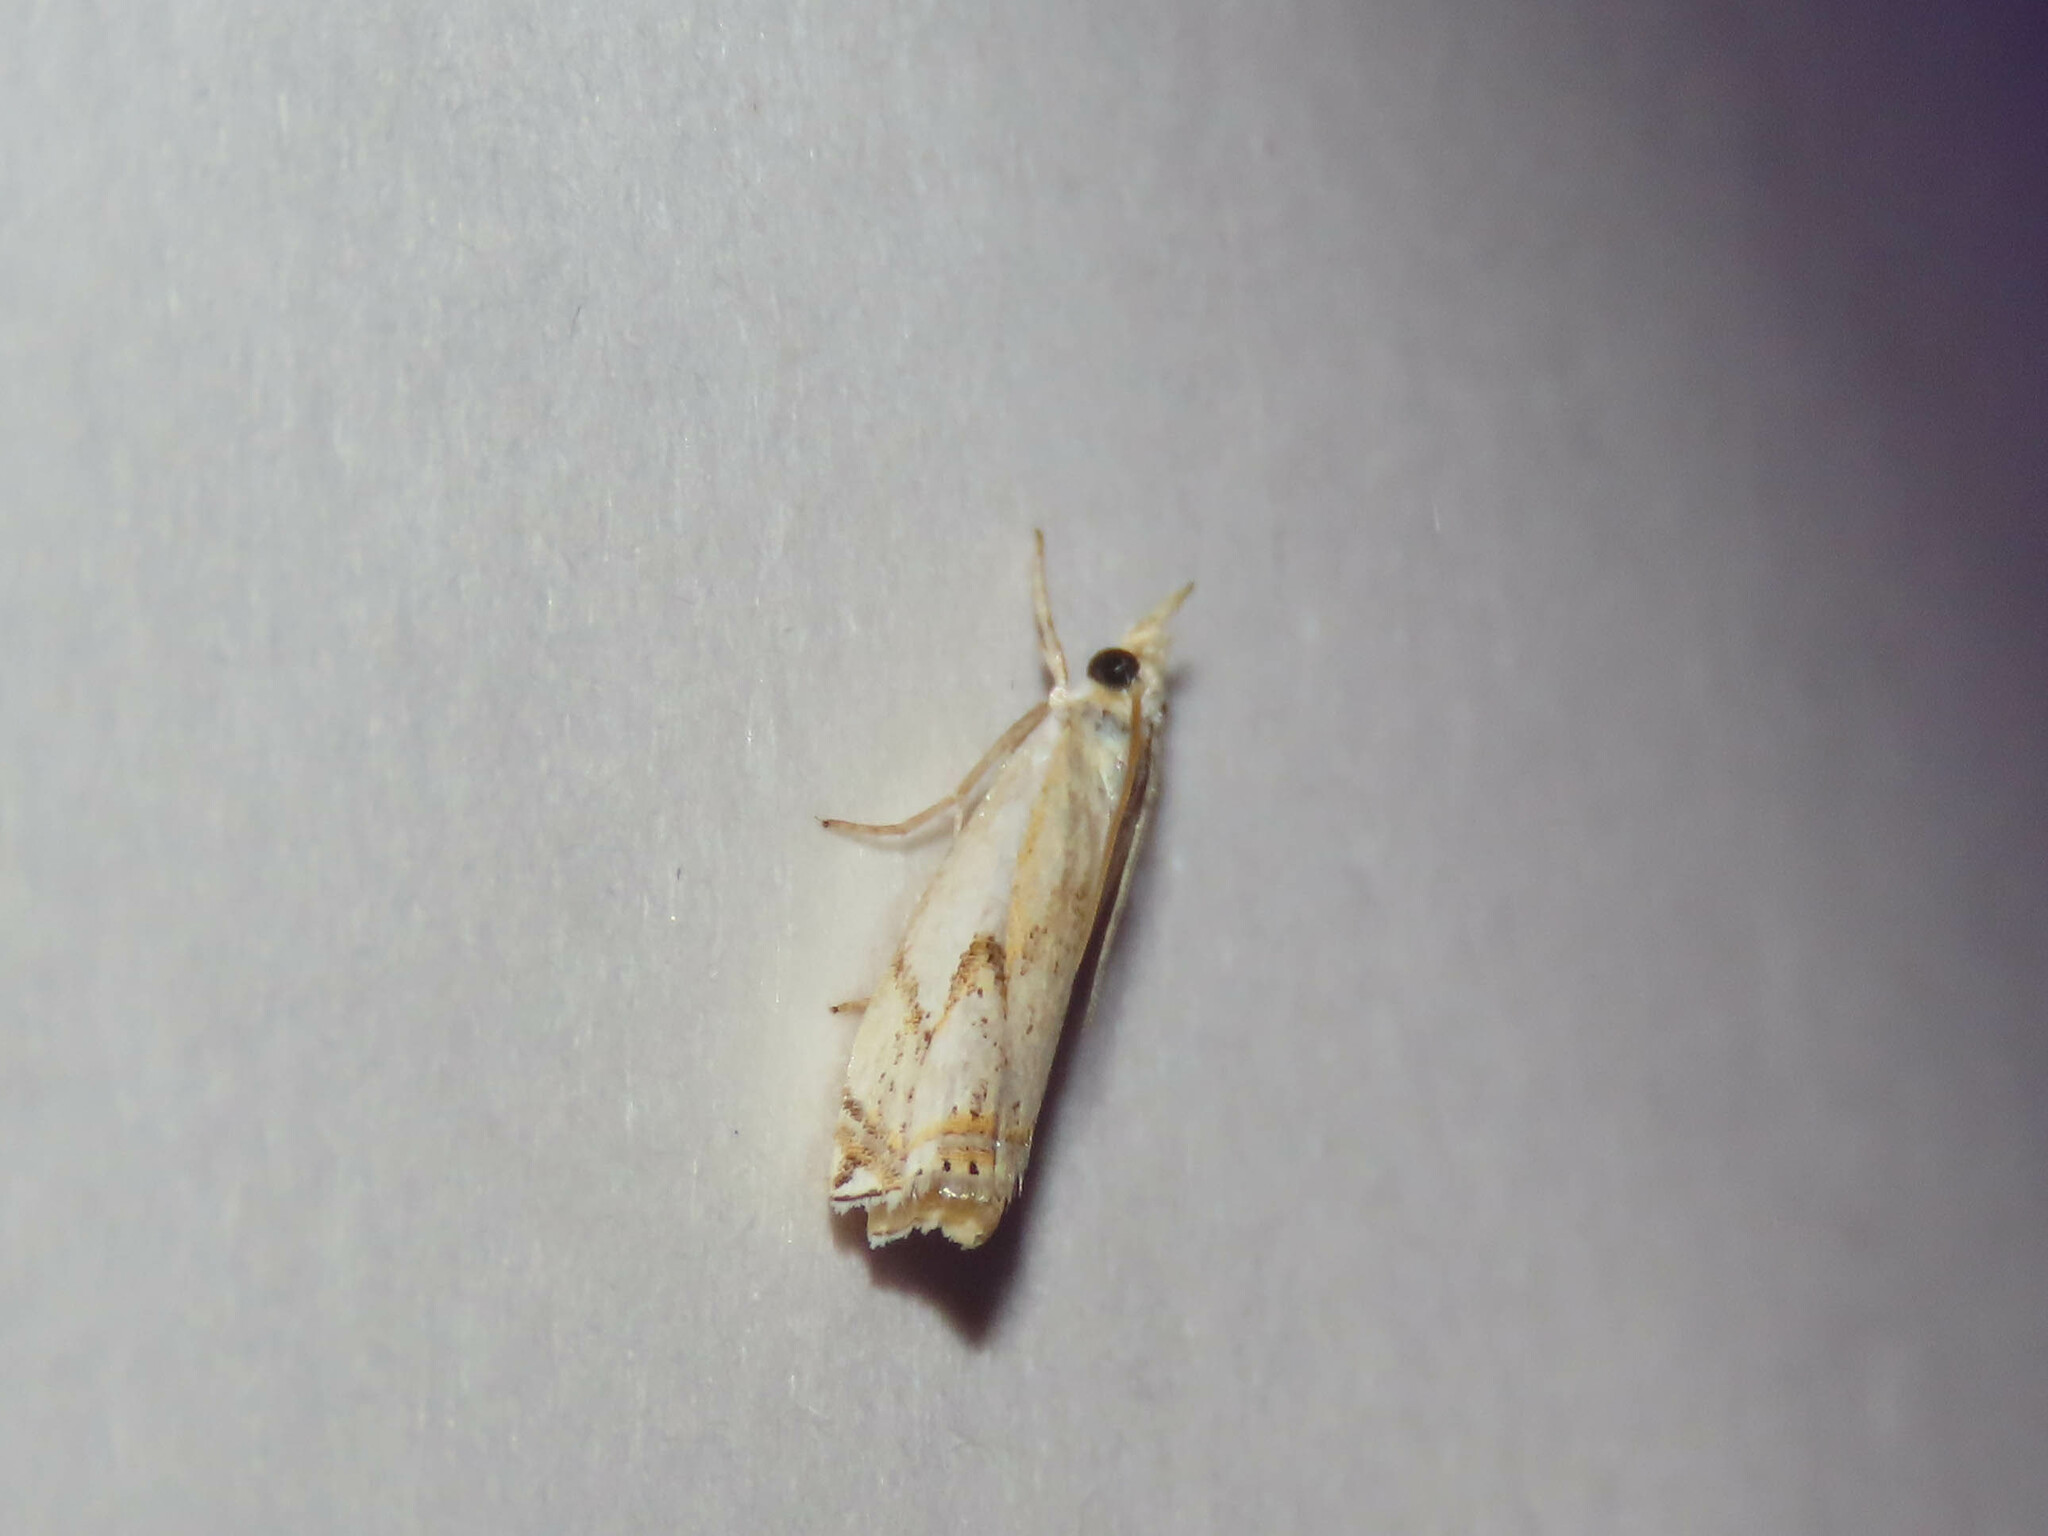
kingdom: Animalia
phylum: Arthropoda
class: Insecta
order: Lepidoptera
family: Crambidae
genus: Crambus
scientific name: Crambus agitatellus
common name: Double-banded grass-veneer
